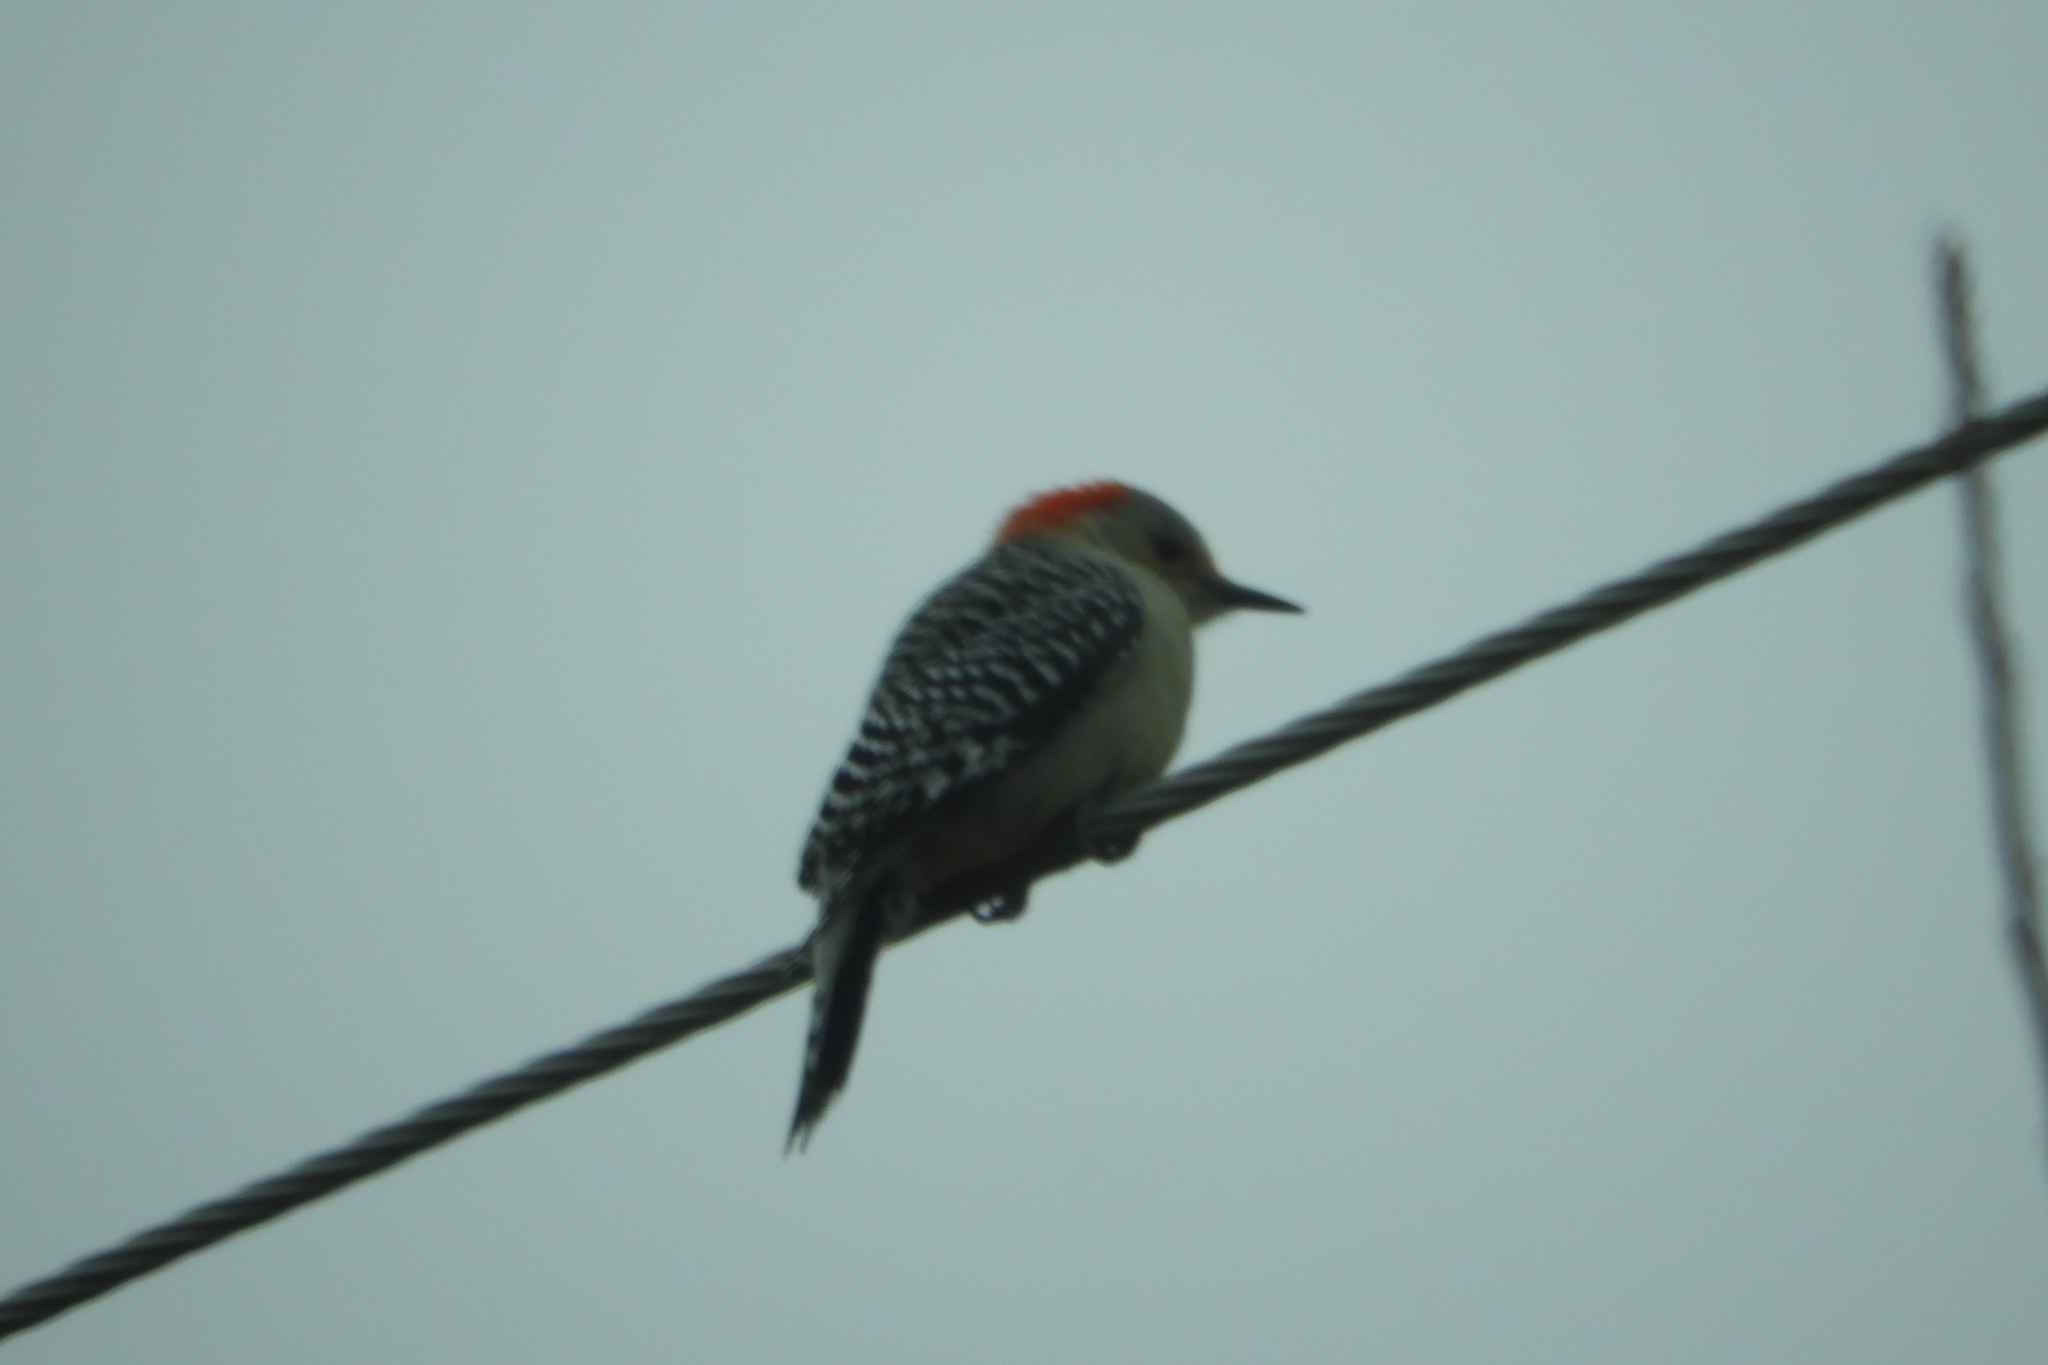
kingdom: Animalia
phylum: Chordata
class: Aves
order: Piciformes
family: Picidae
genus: Melanerpes
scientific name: Melanerpes carolinus
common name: Red-bellied woodpecker
